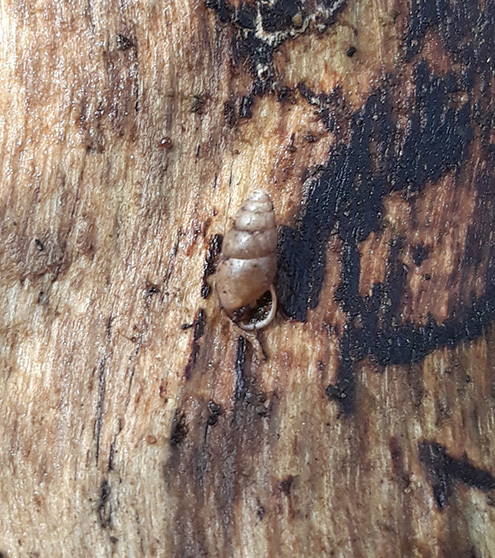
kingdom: Animalia
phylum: Mollusca
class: Gastropoda
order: Stylommatophora
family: Cochlicopidae
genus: Cochlicopa
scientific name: Cochlicopa lubrica
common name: Glossy pillar snail
